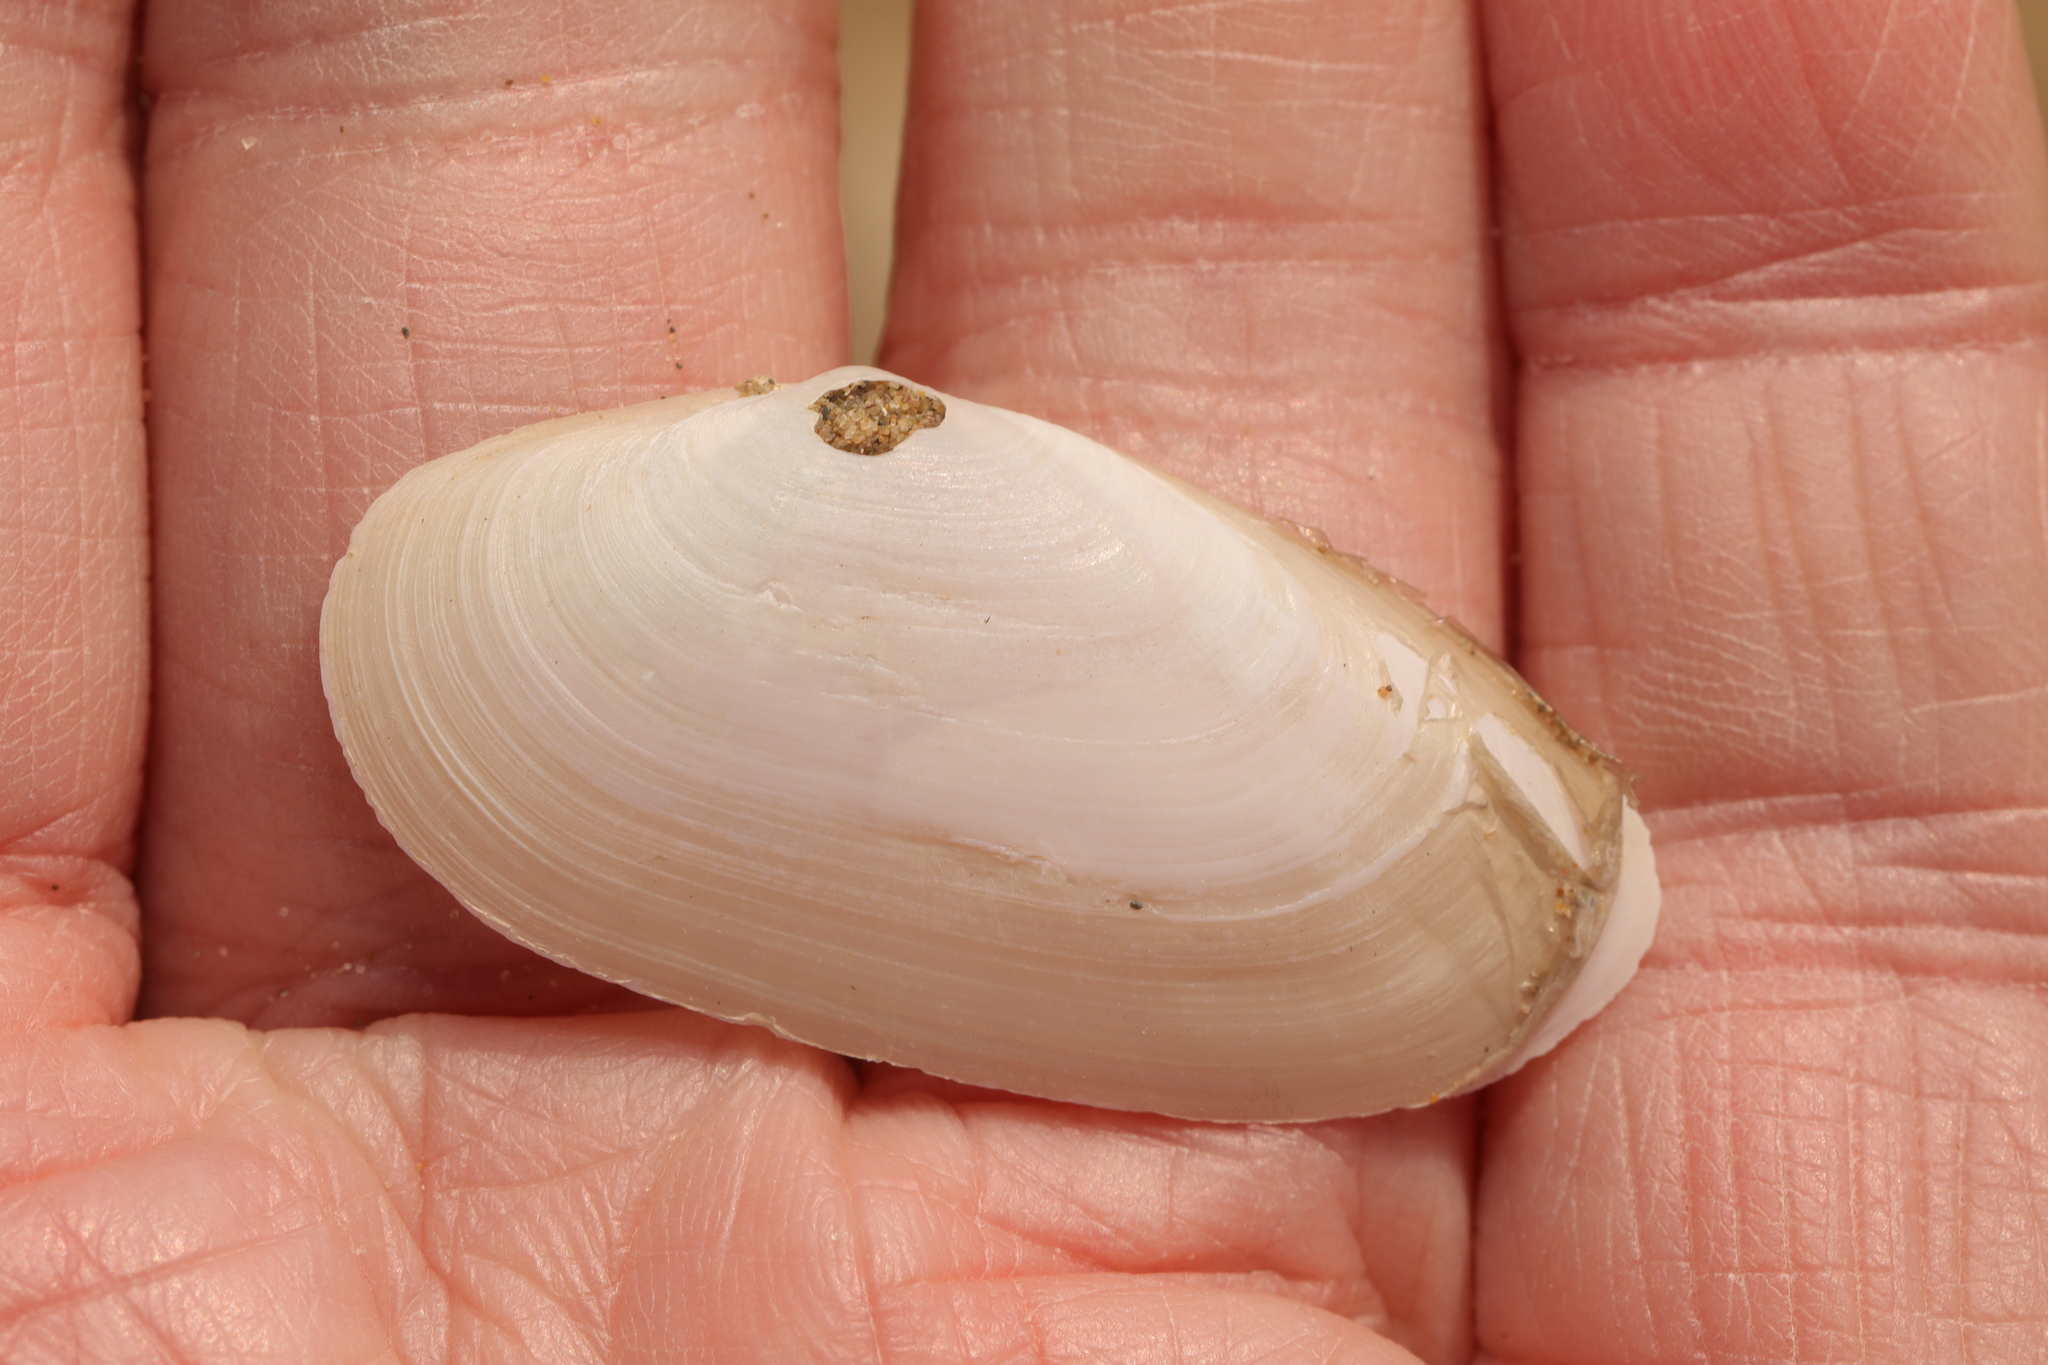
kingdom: Animalia
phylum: Mollusca
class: Bivalvia
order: Venerida
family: Mactridae
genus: Lutraria
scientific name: Lutraria lutraria
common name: Common otter shell
